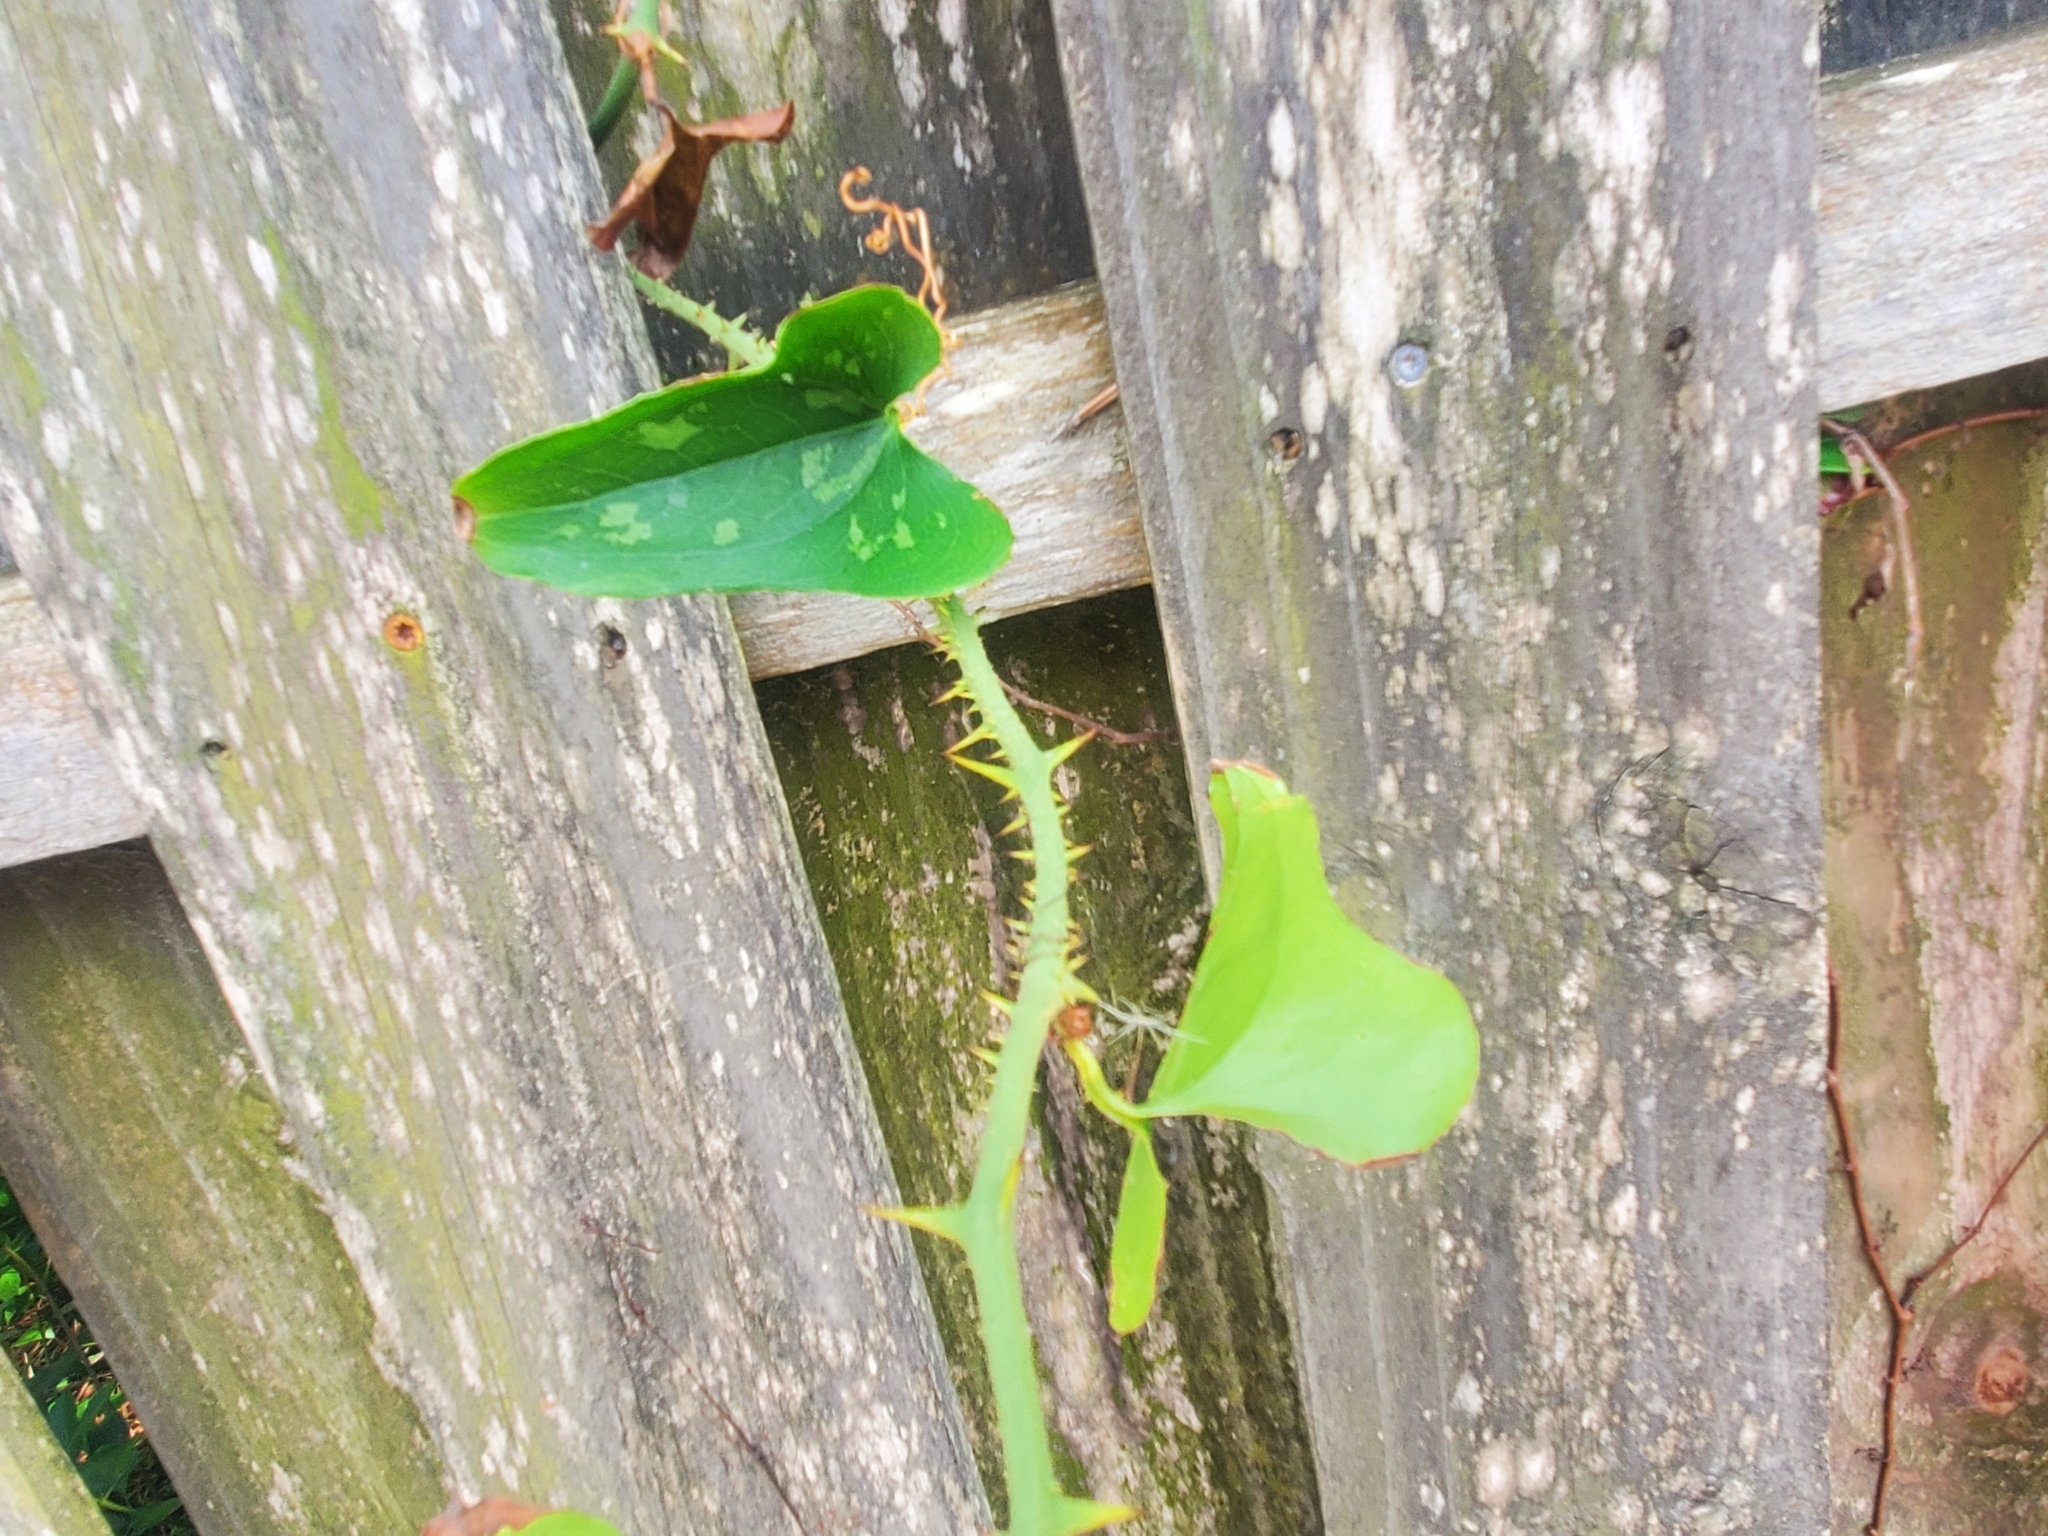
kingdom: Plantae
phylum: Tracheophyta
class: Liliopsida
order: Liliales
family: Smilacaceae
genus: Smilax
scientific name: Smilax bona-nox
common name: Catbrier
